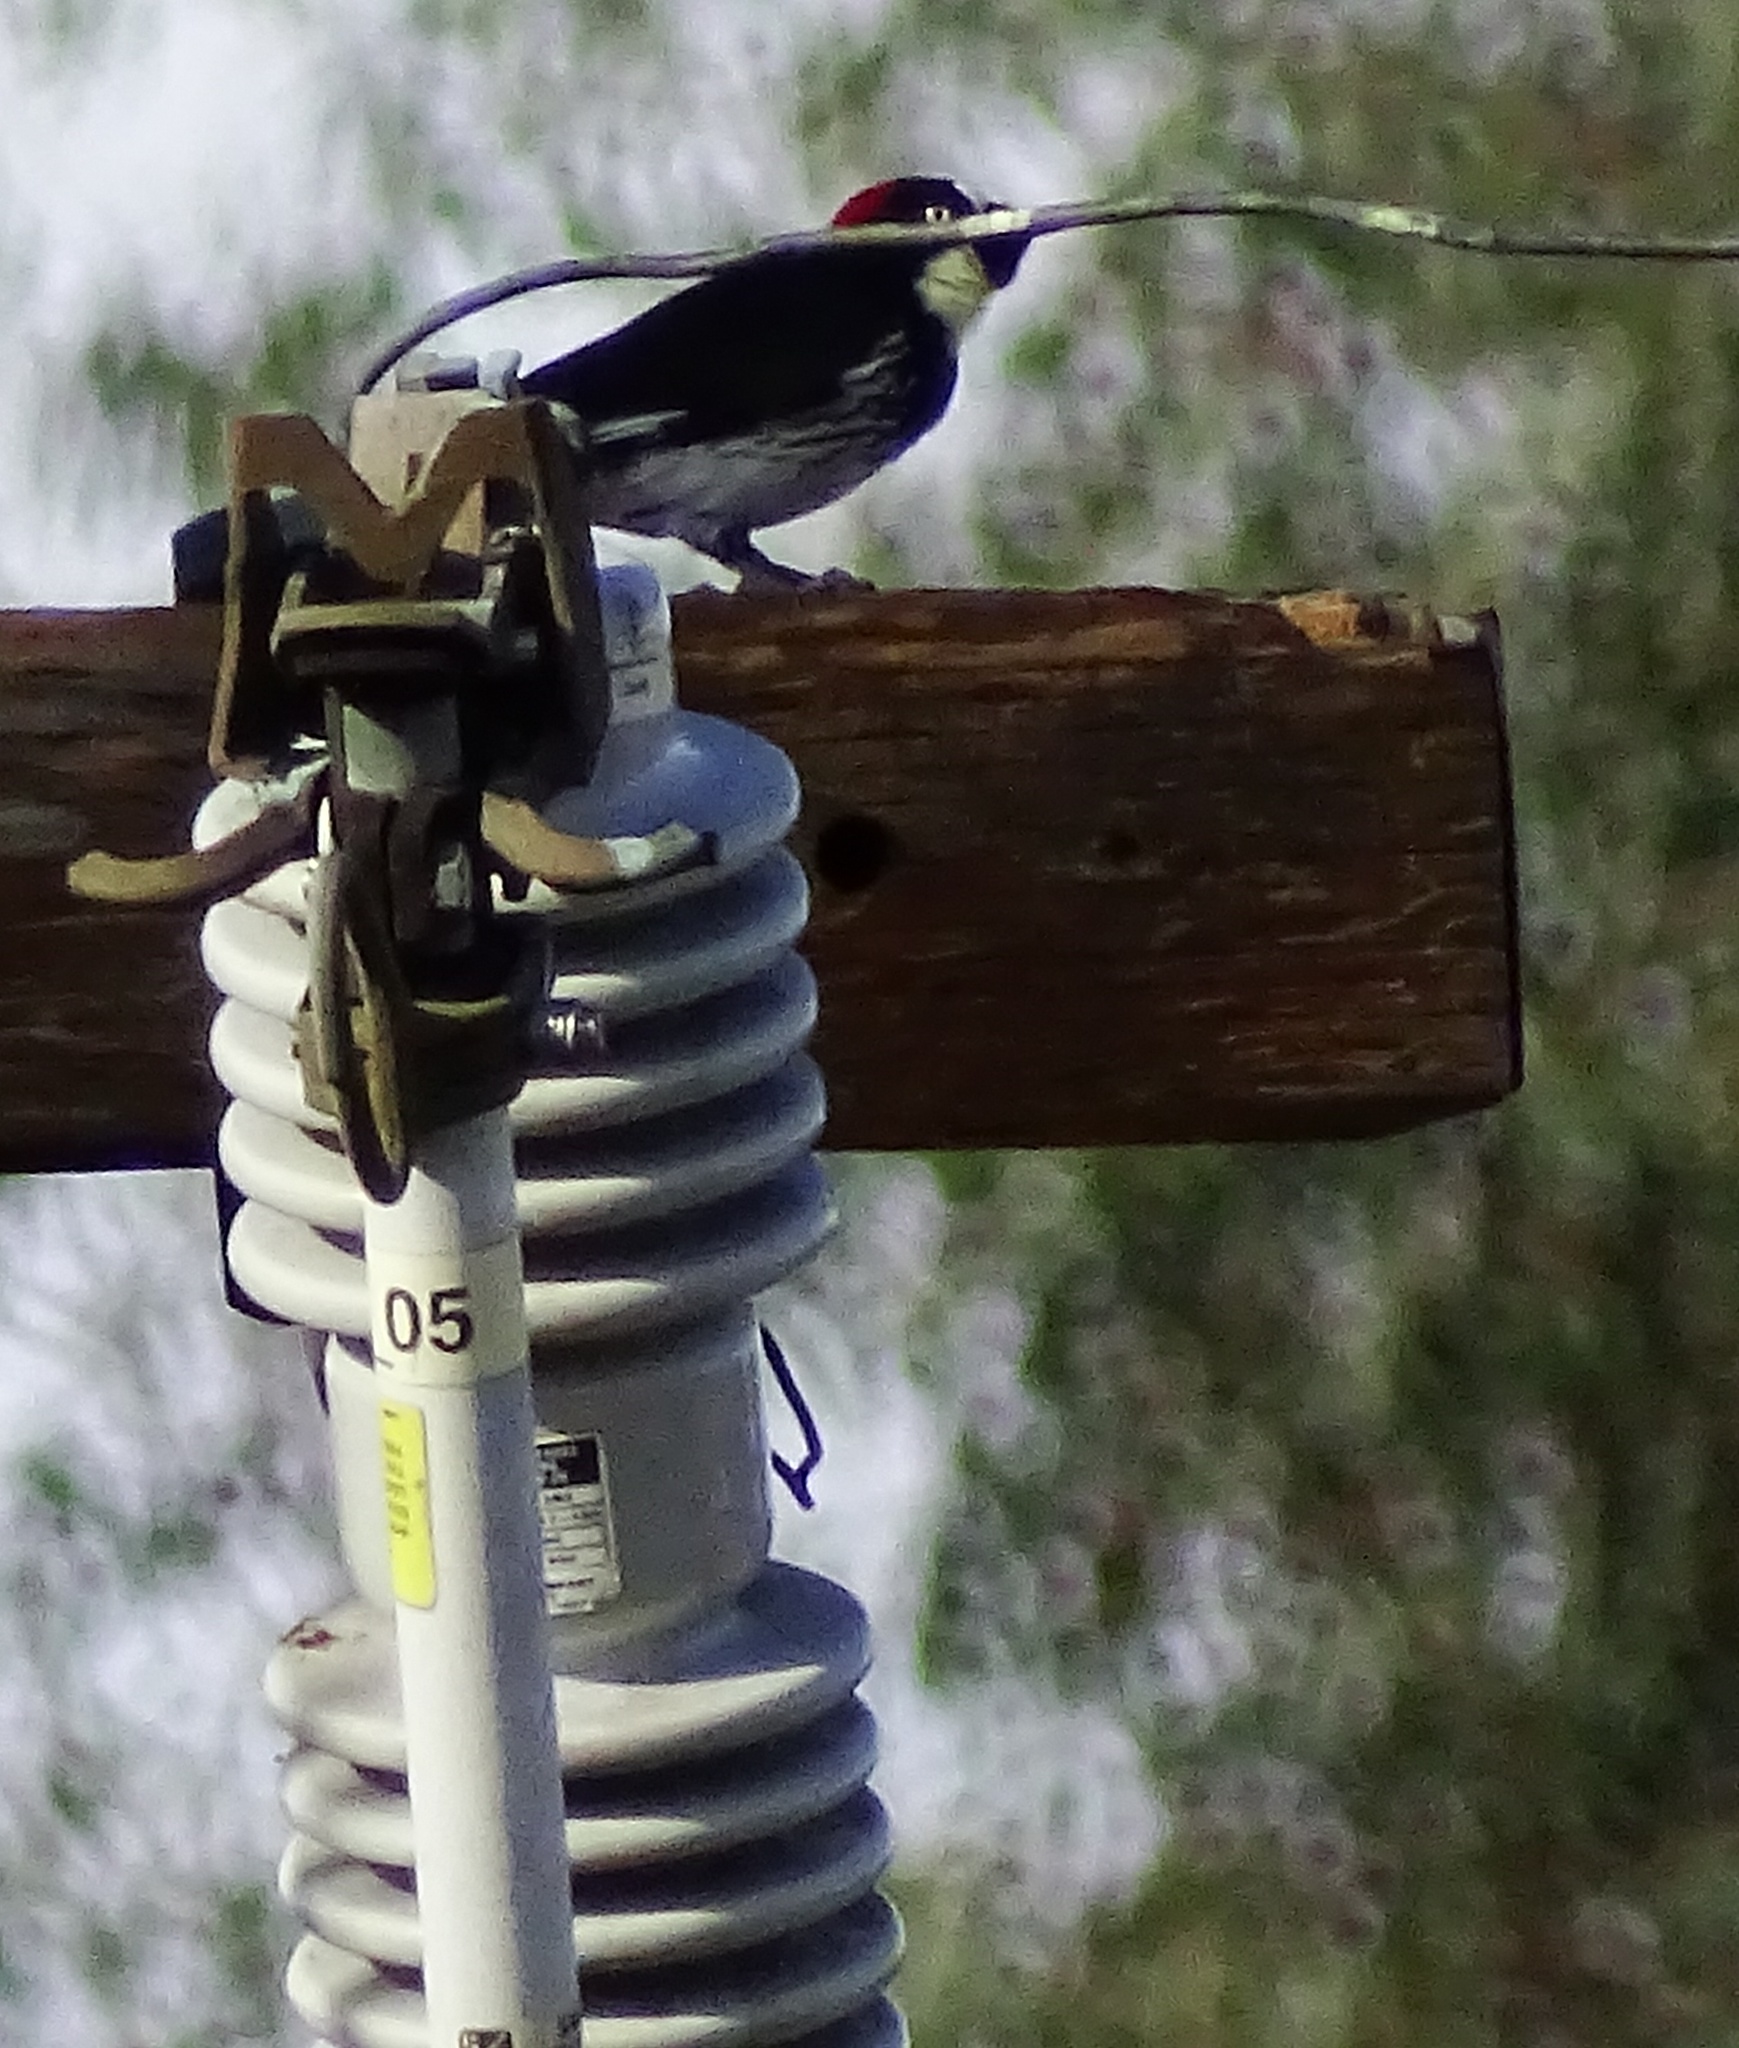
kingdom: Animalia
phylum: Chordata
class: Aves
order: Piciformes
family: Picidae
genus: Melanerpes
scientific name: Melanerpes formicivorus
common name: Acorn woodpecker
